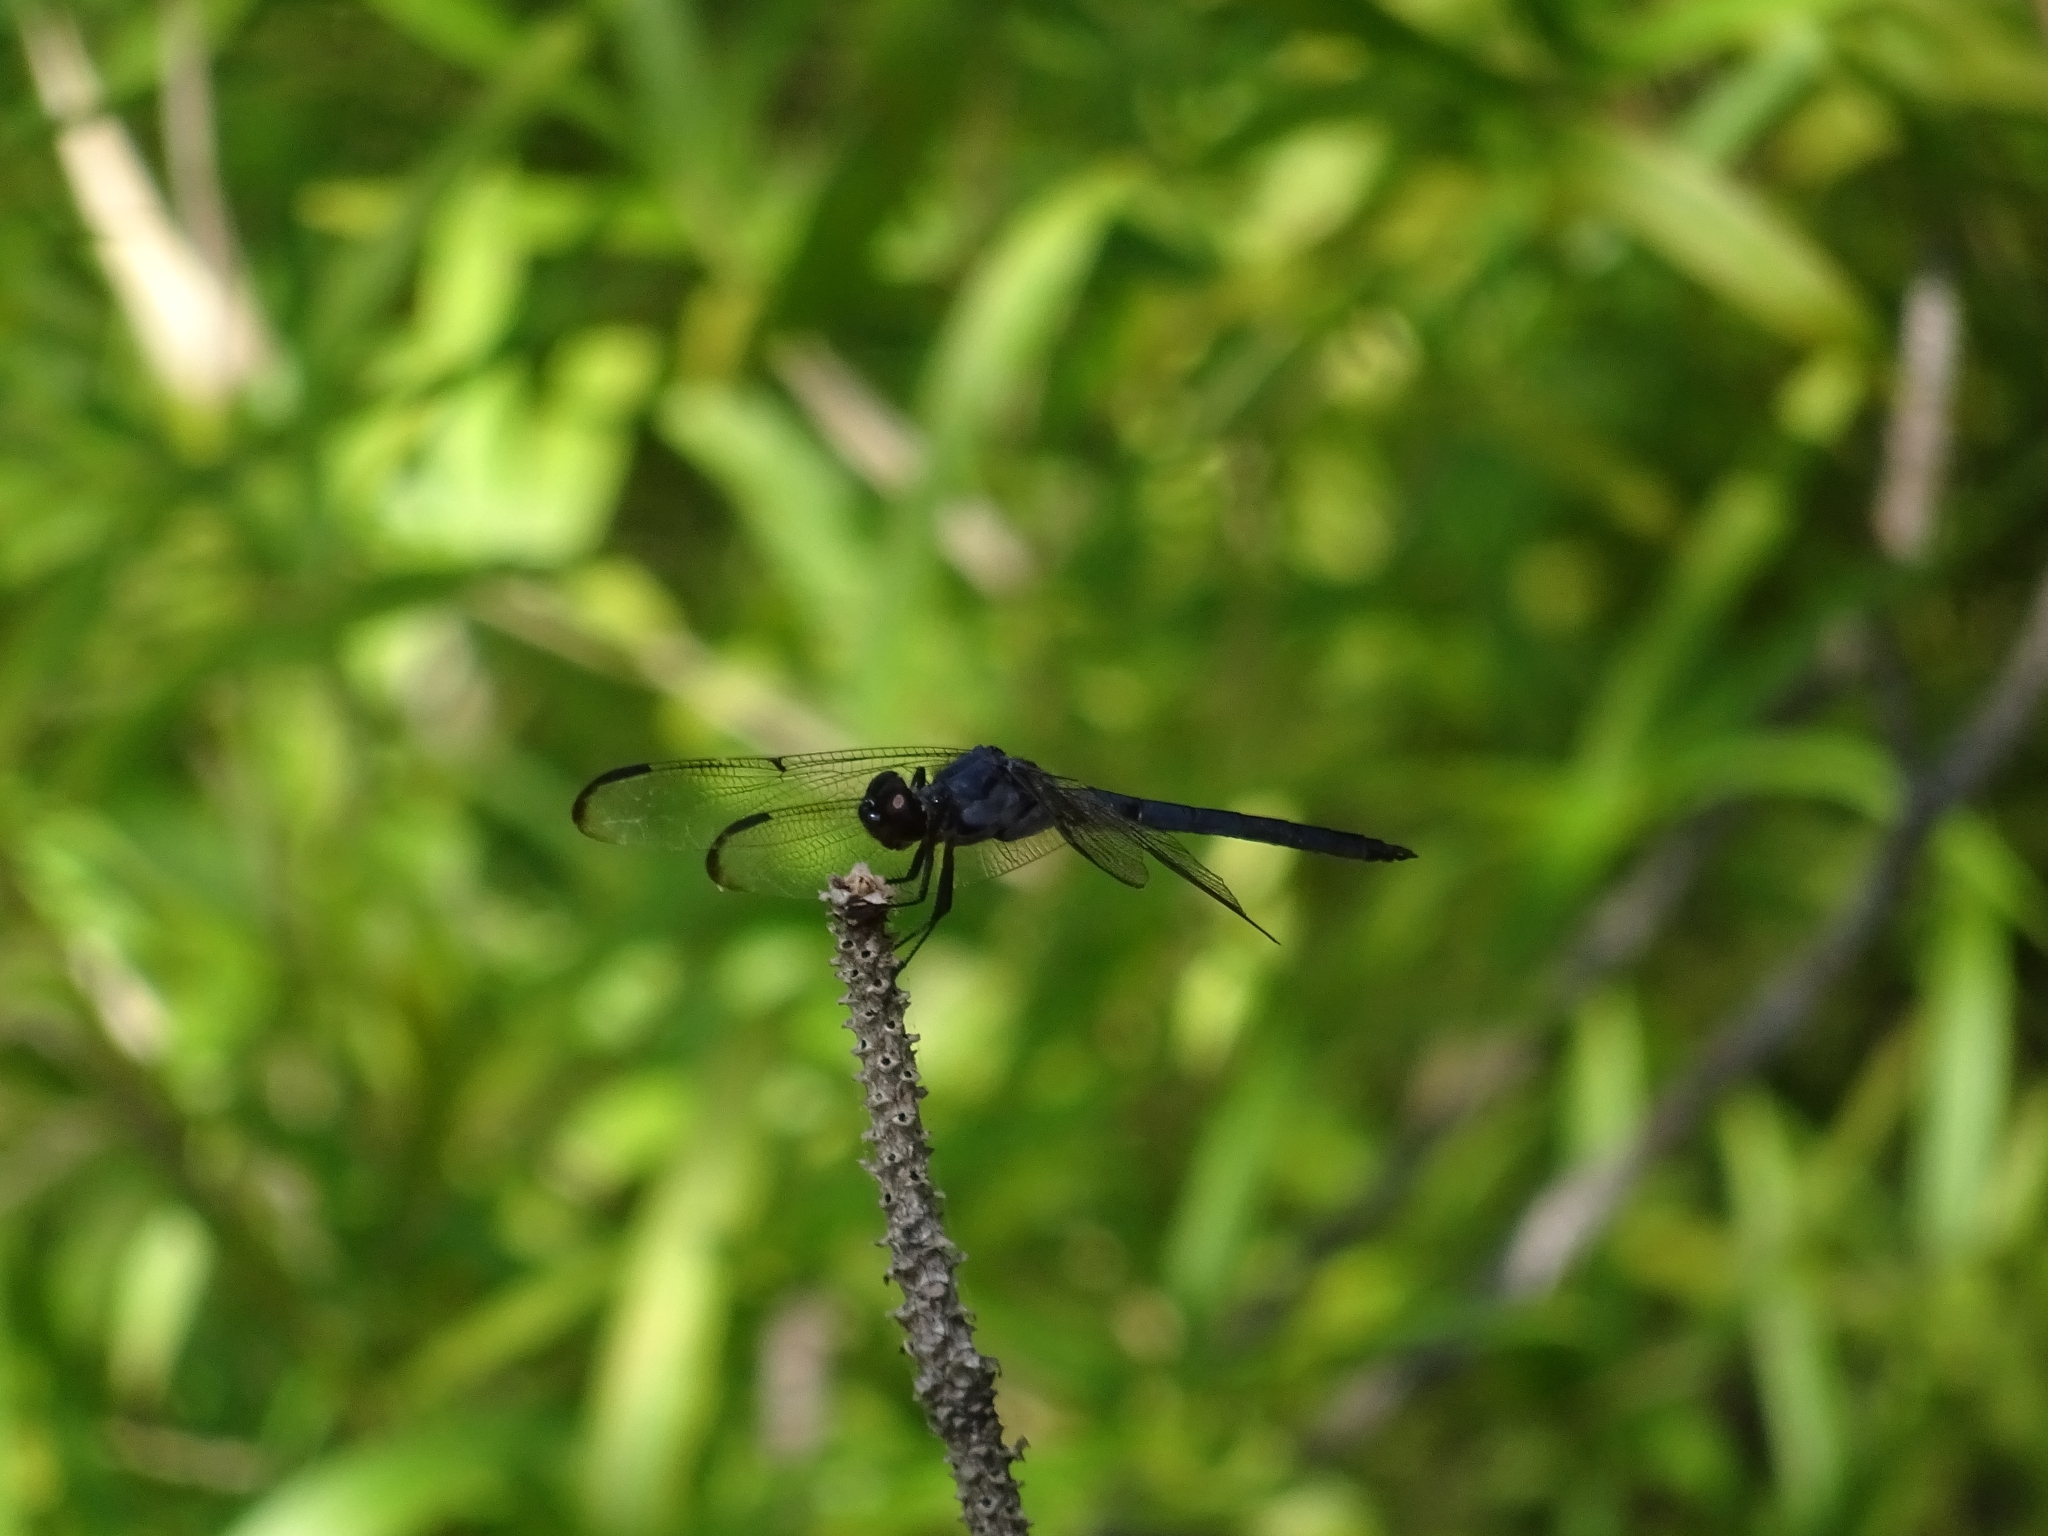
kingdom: Animalia
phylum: Arthropoda
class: Insecta
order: Odonata
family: Libellulidae
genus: Libellula
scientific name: Libellula incesta
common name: Slaty skimmer
